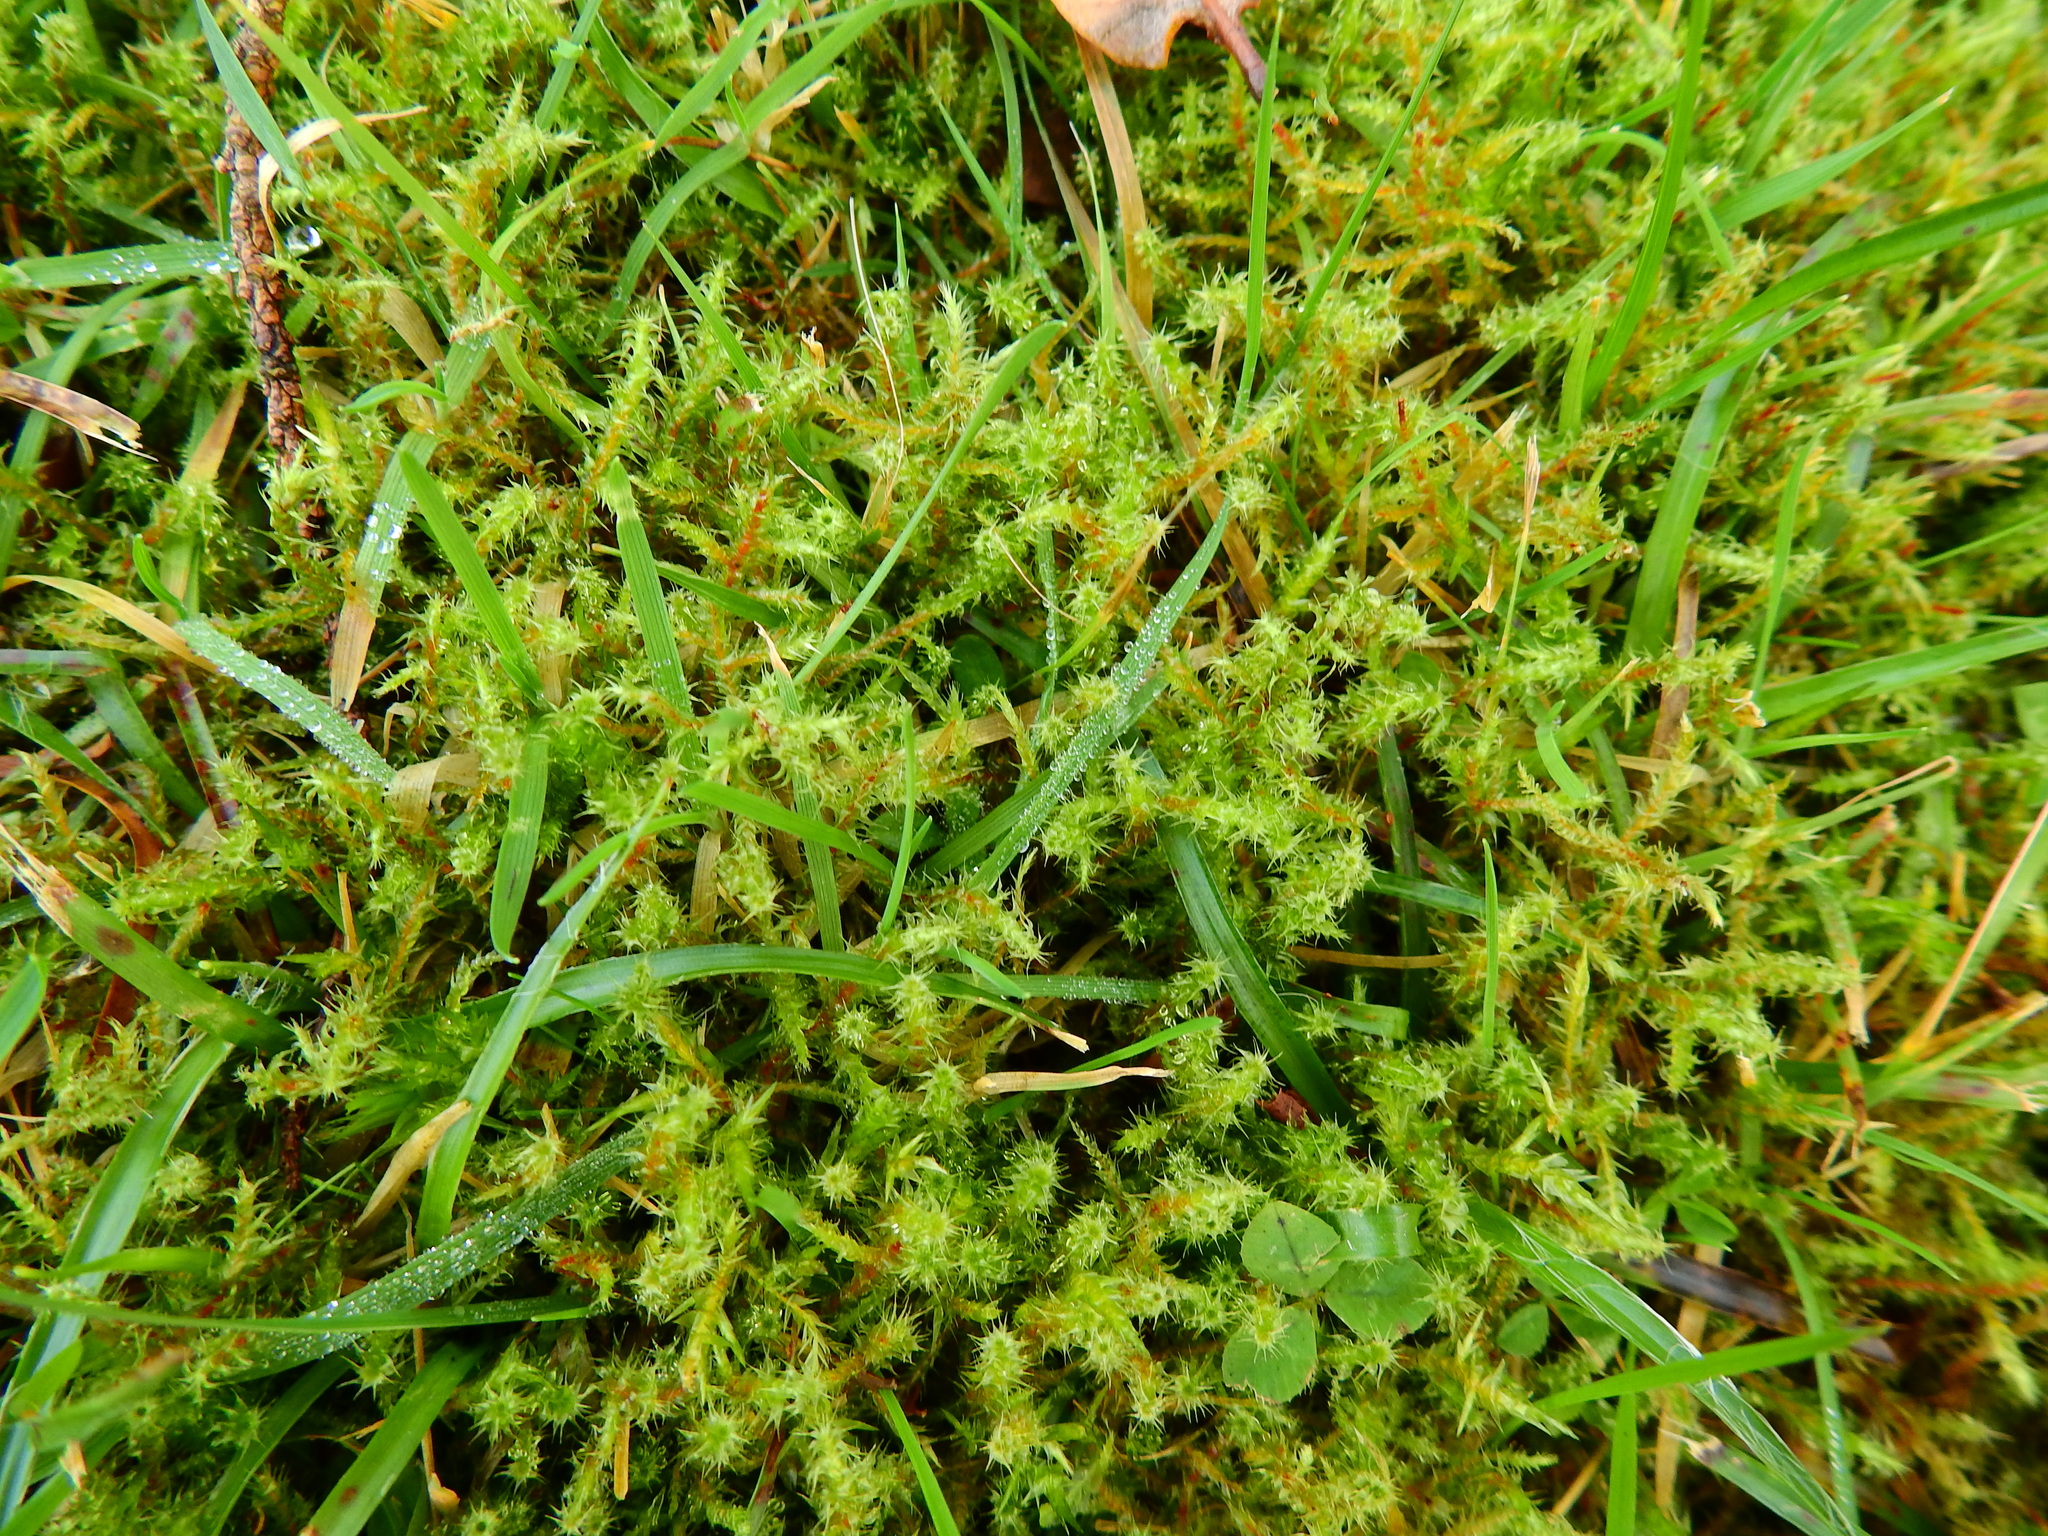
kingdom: Plantae
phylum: Bryophyta
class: Bryopsida
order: Hypnales
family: Hylocomiaceae
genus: Rhytidiadelphus
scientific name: Rhytidiadelphus squarrosus
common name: Springy turf-moss
